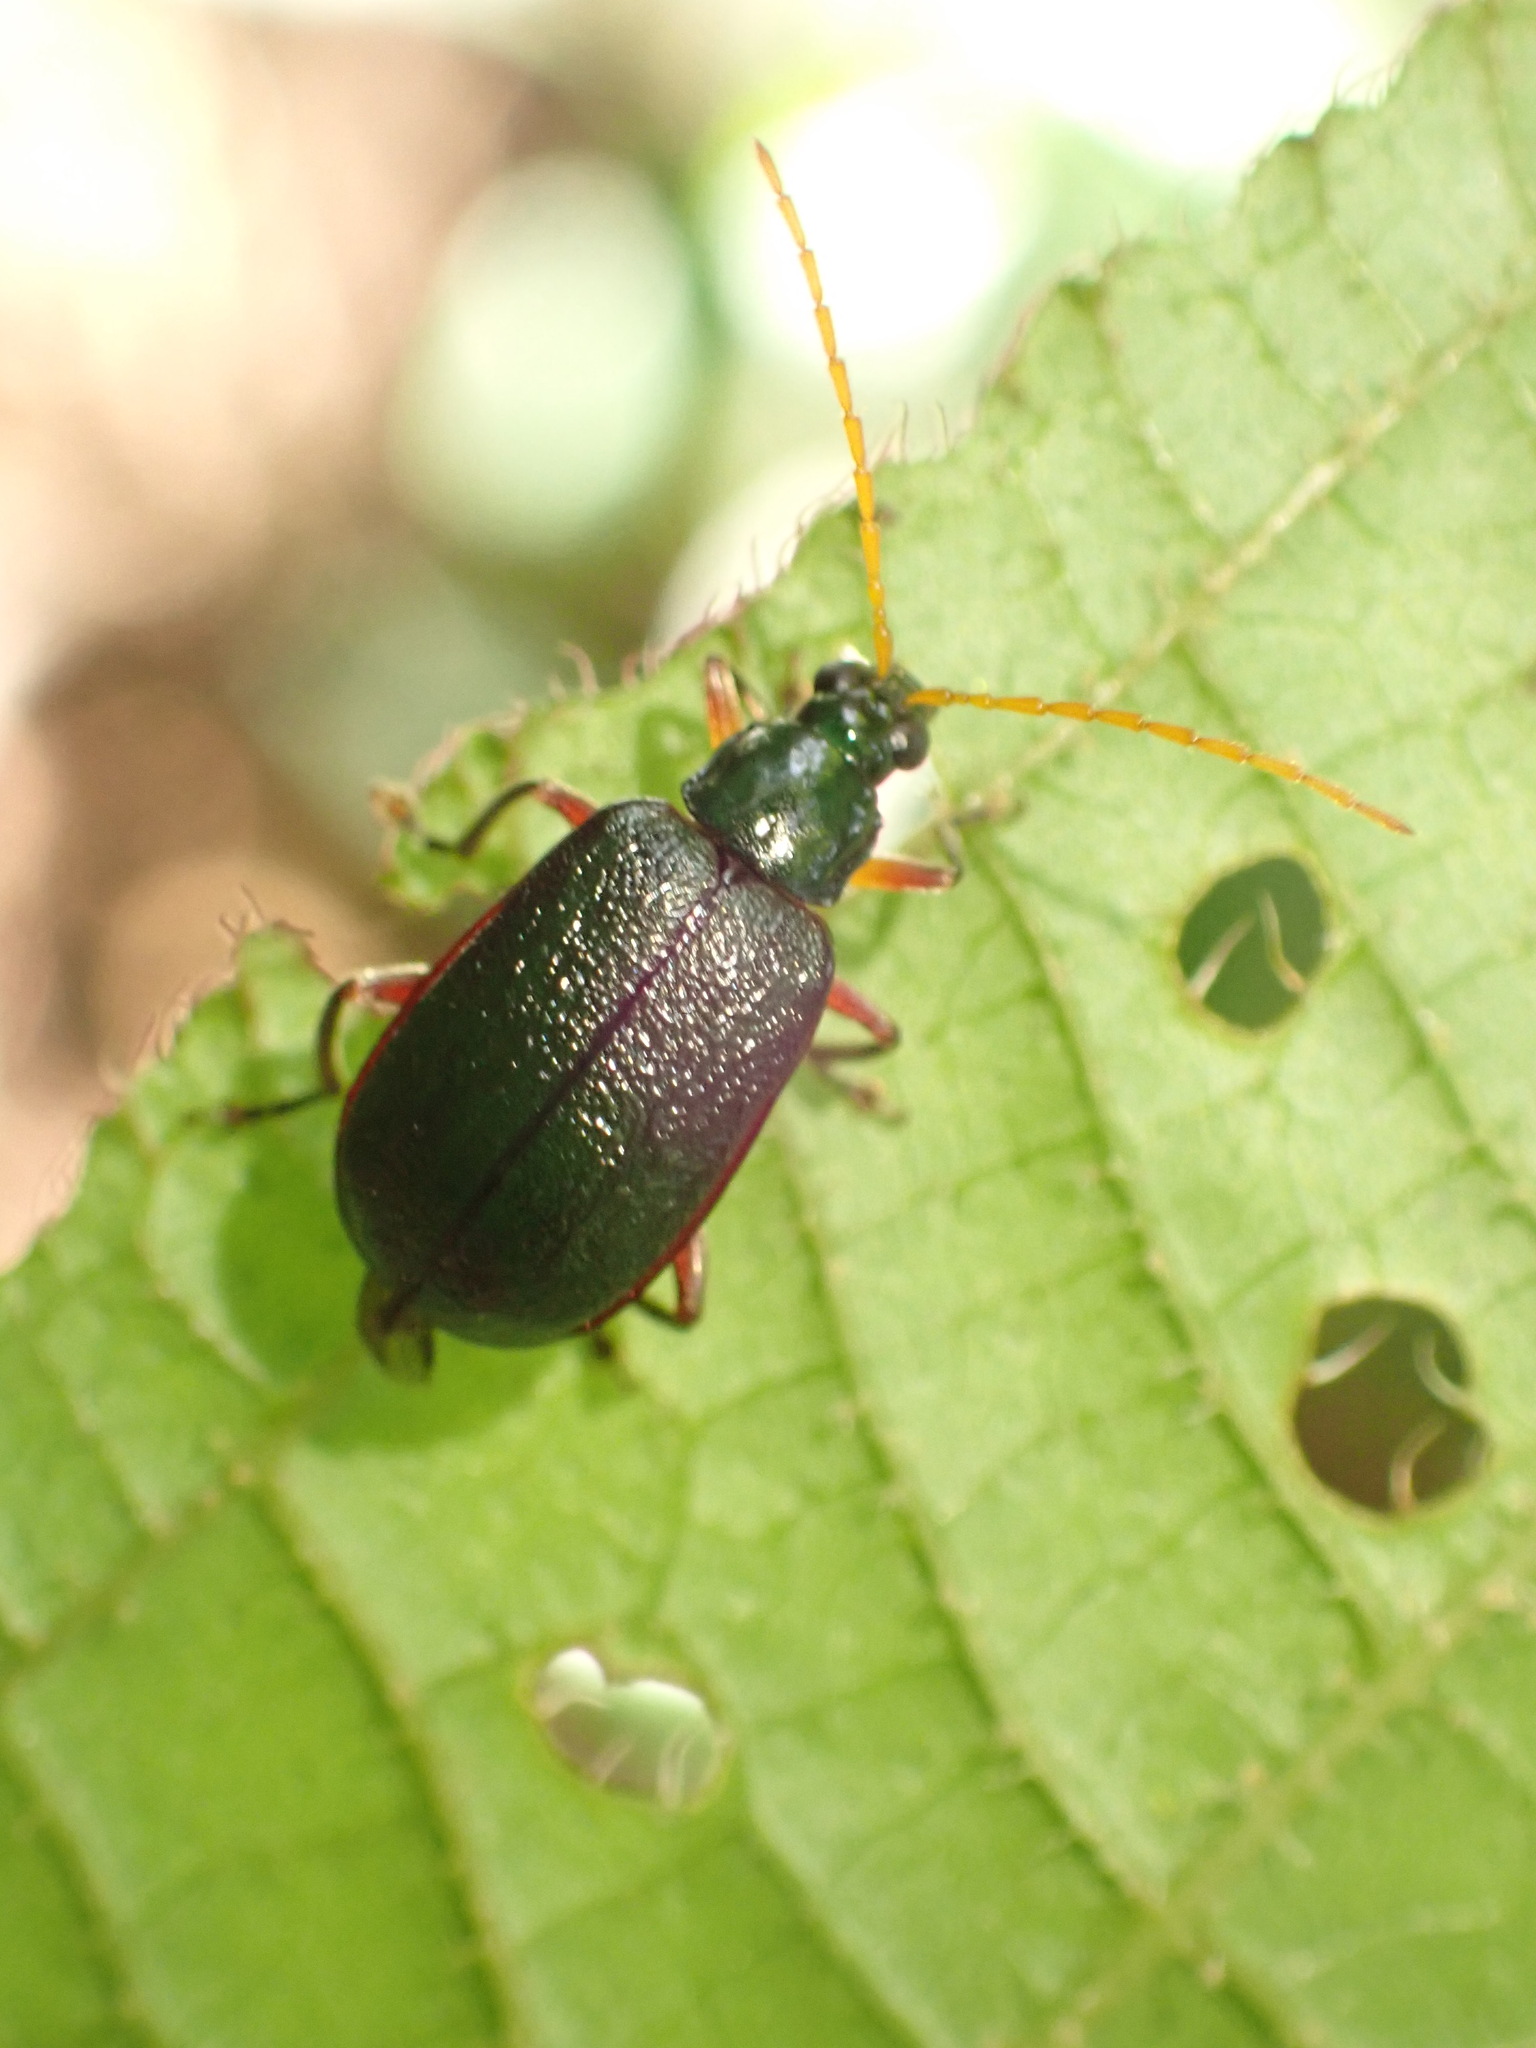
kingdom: Animalia
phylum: Arthropoda
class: Insecta
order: Coleoptera
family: Chrysomelidae
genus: Cochabamba
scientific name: Cochabamba
